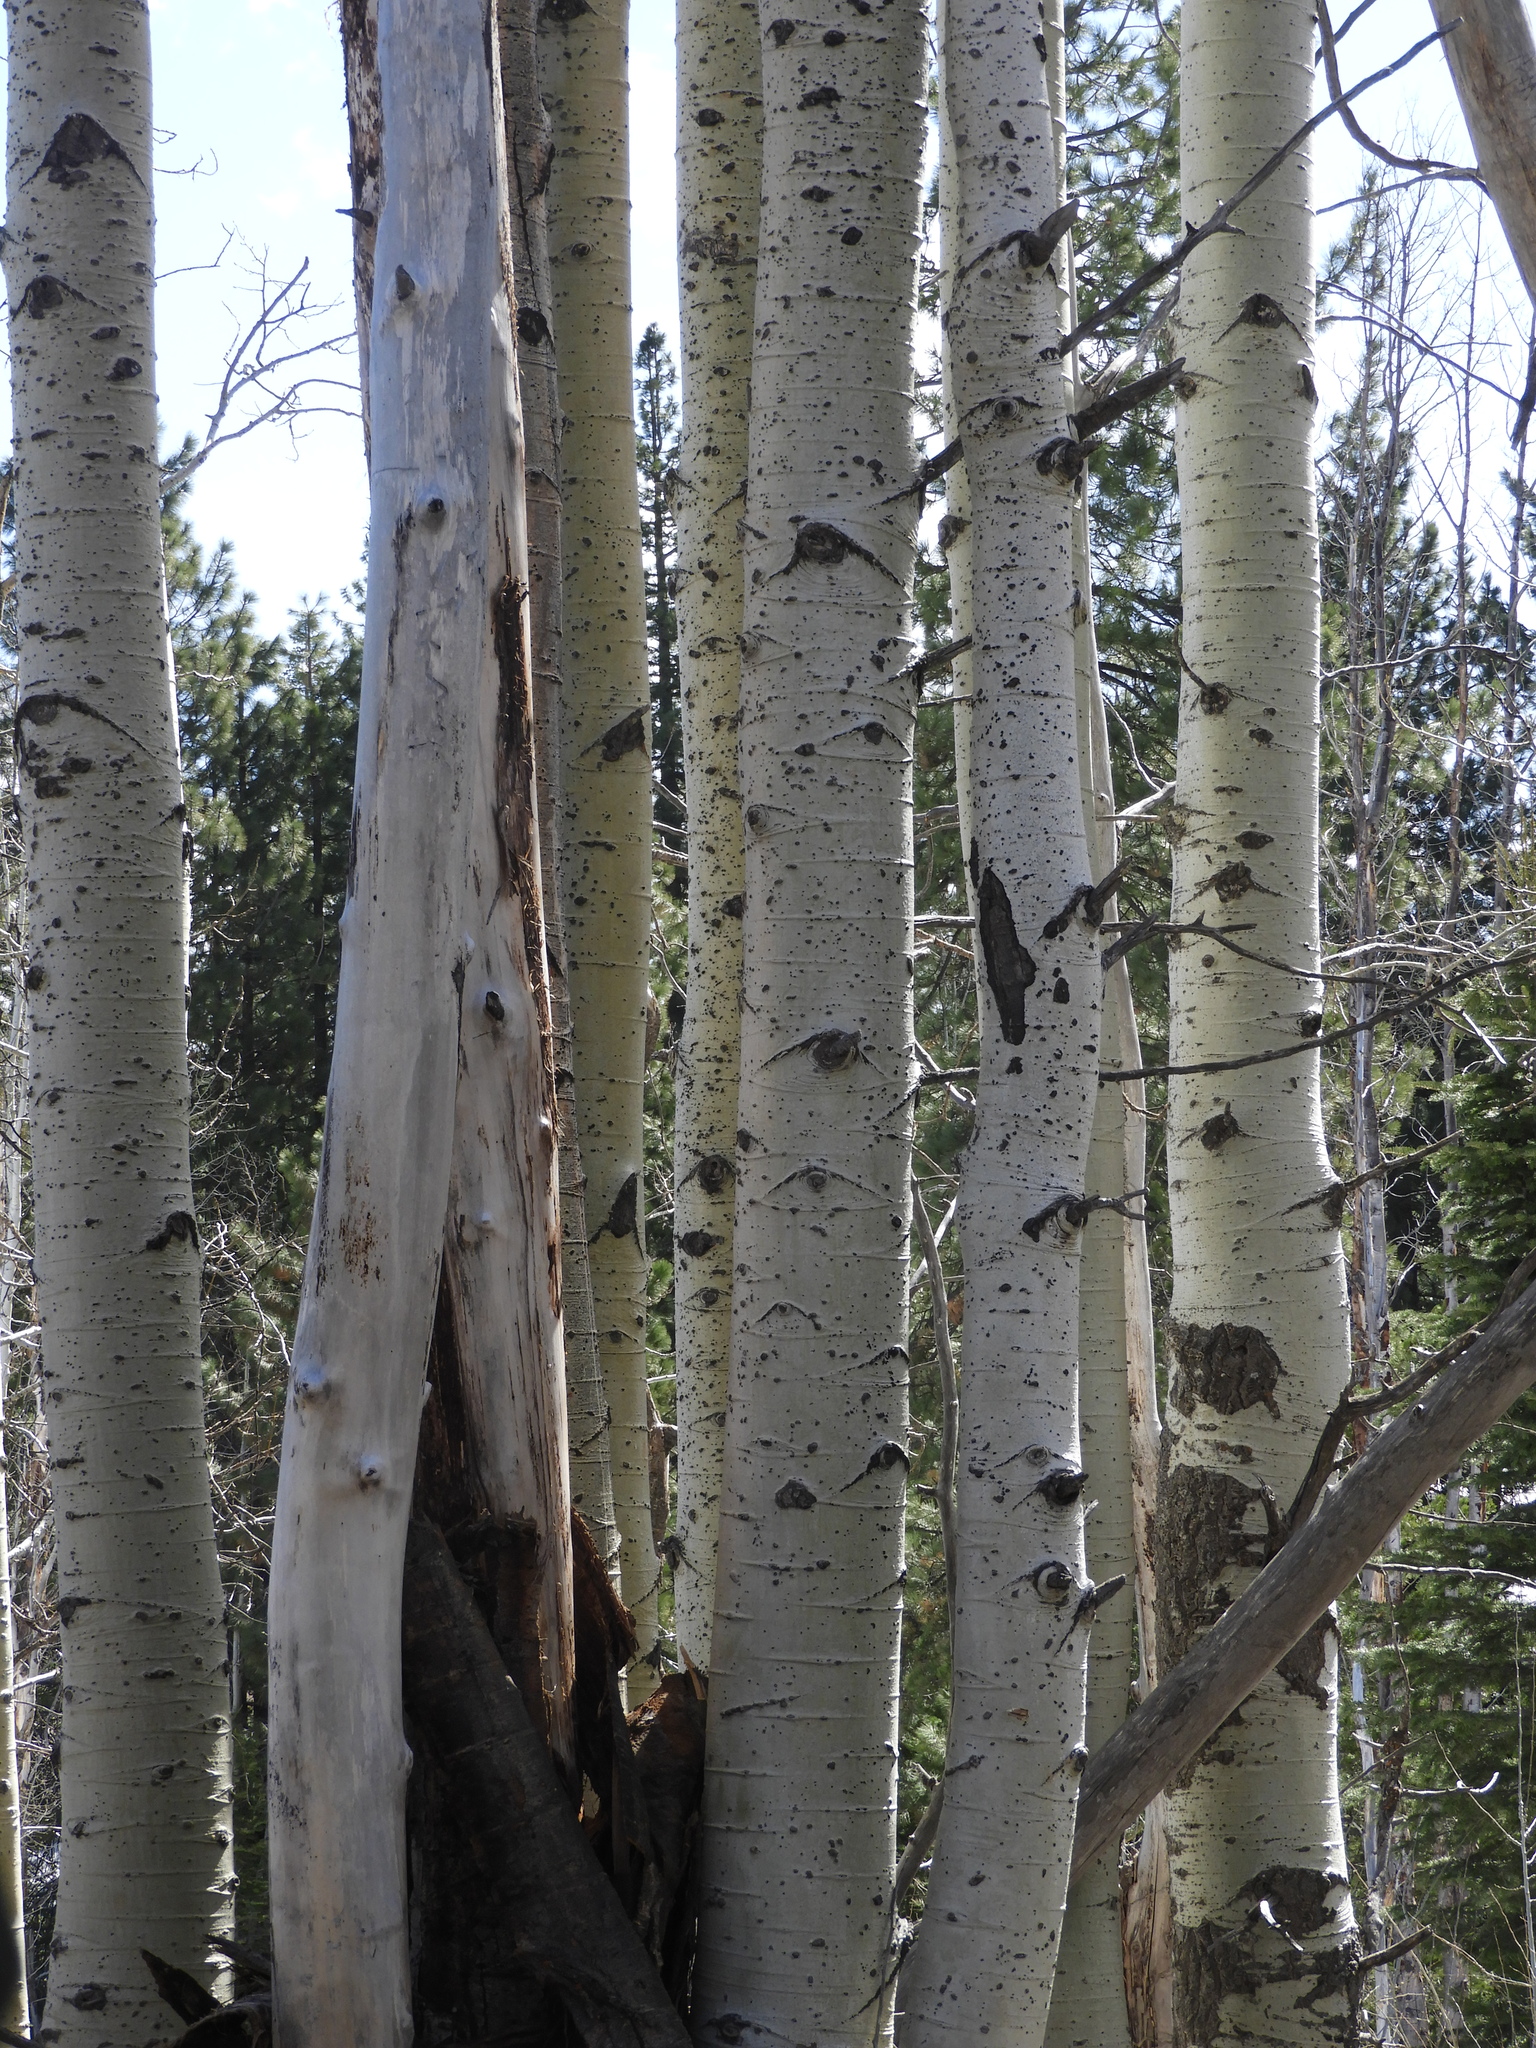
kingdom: Plantae
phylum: Tracheophyta
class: Magnoliopsida
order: Malpighiales
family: Salicaceae
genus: Populus
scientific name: Populus tremuloides
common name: Quaking aspen
